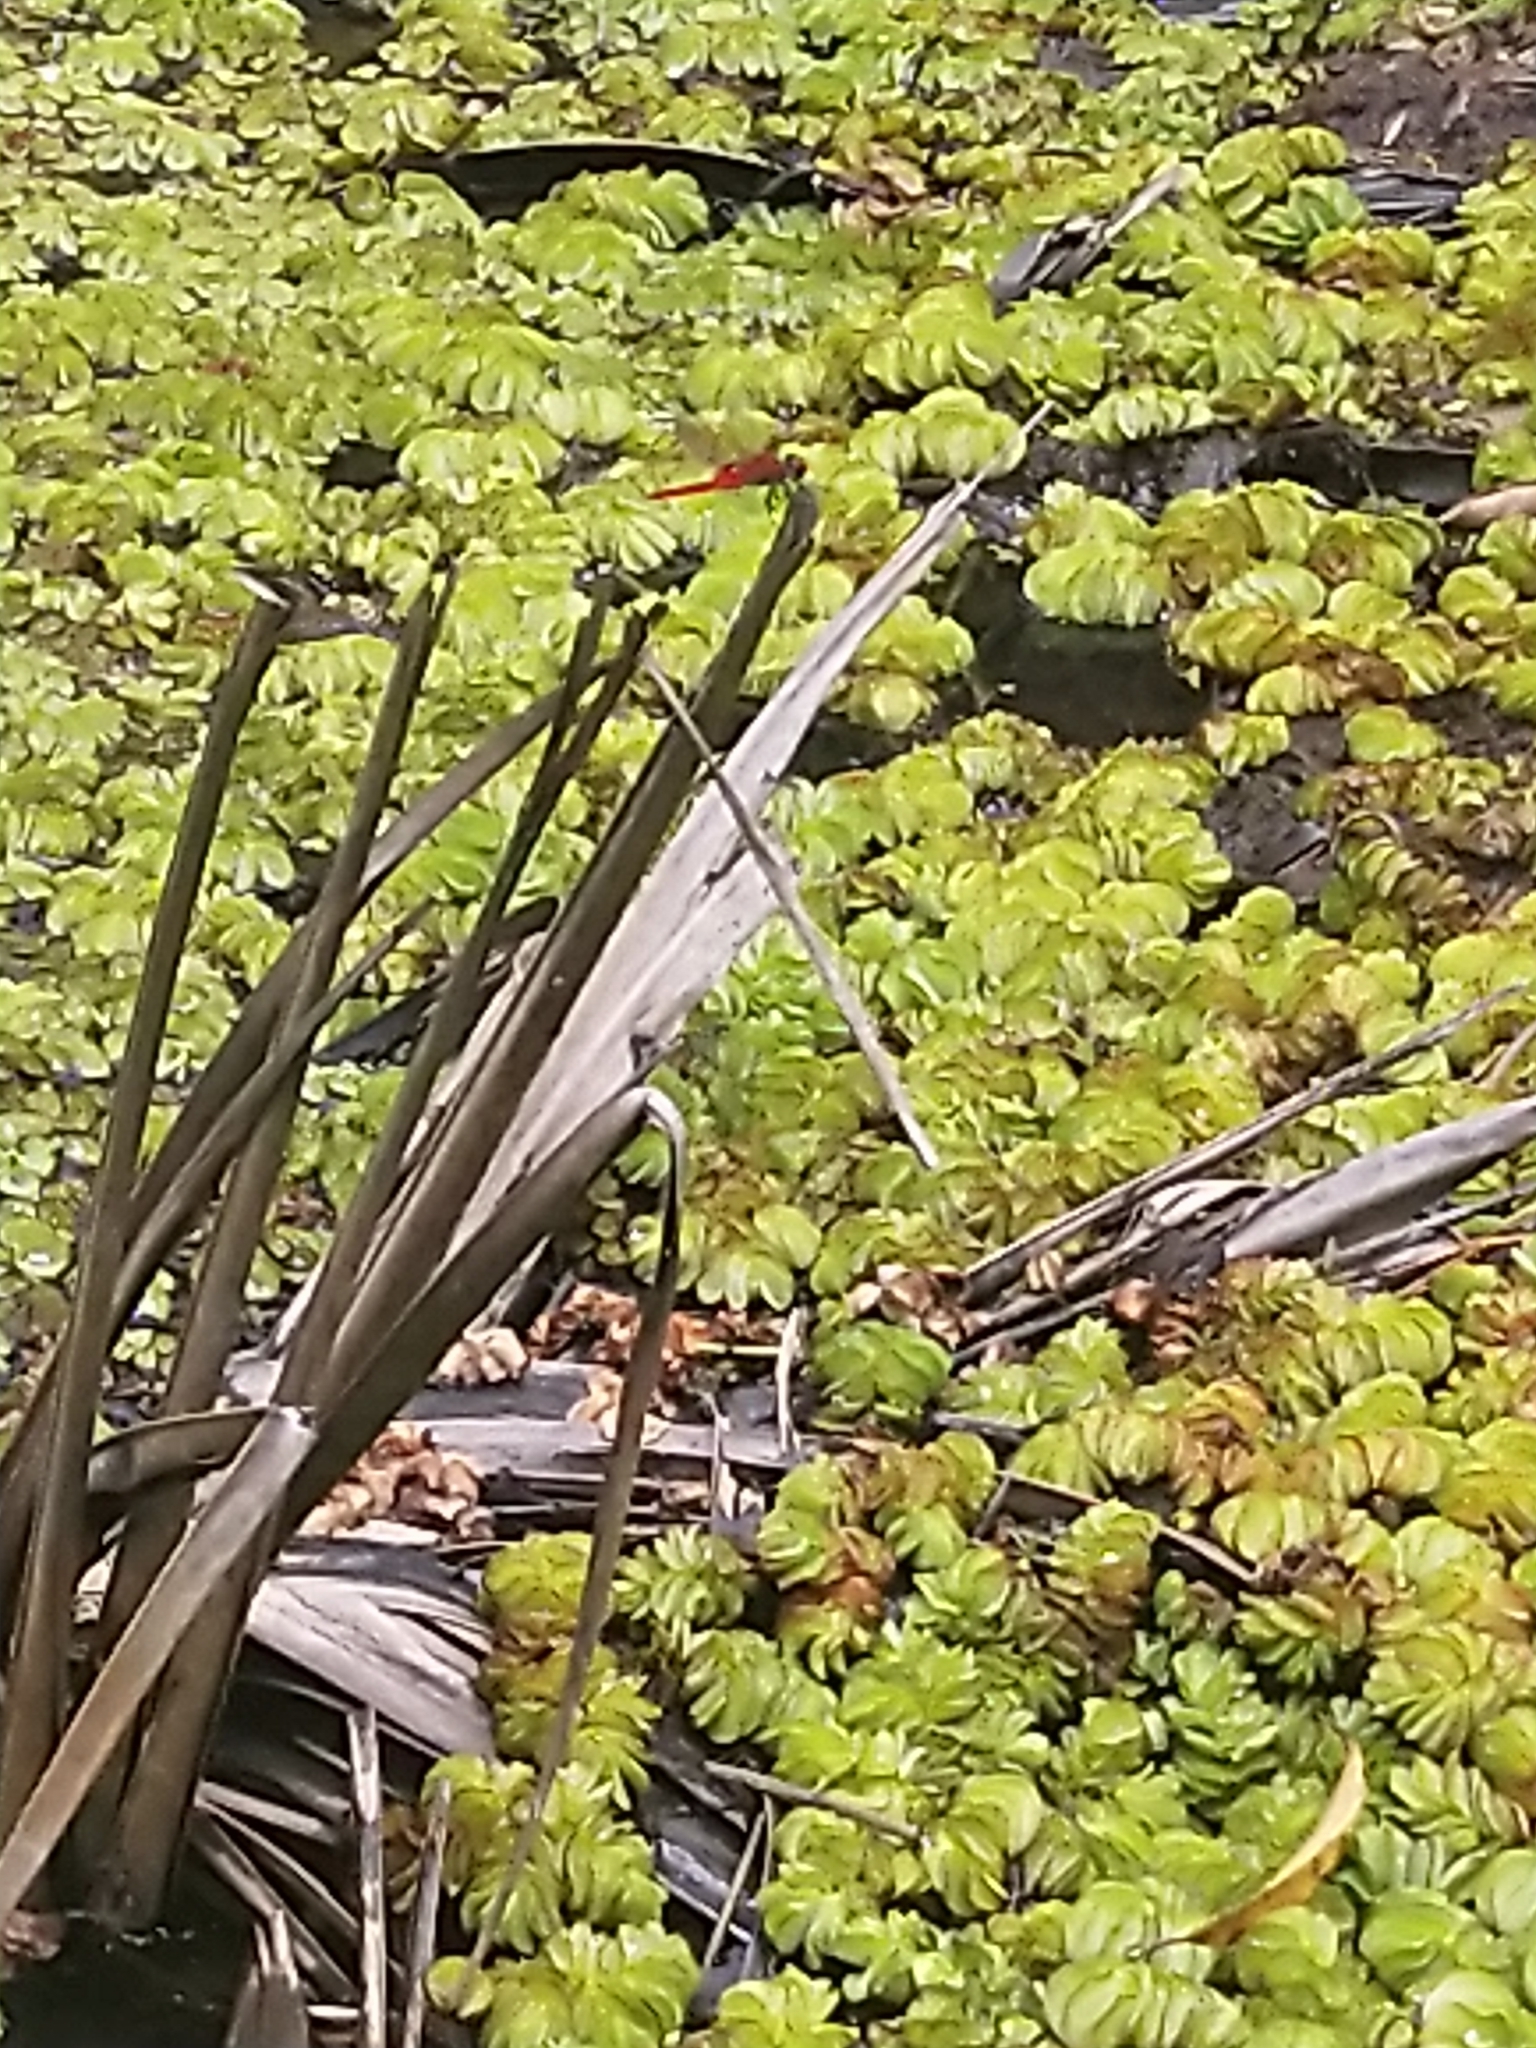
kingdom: Animalia
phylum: Arthropoda
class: Insecta
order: Odonata
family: Libellulidae
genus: Urothemis
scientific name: Urothemis signata
